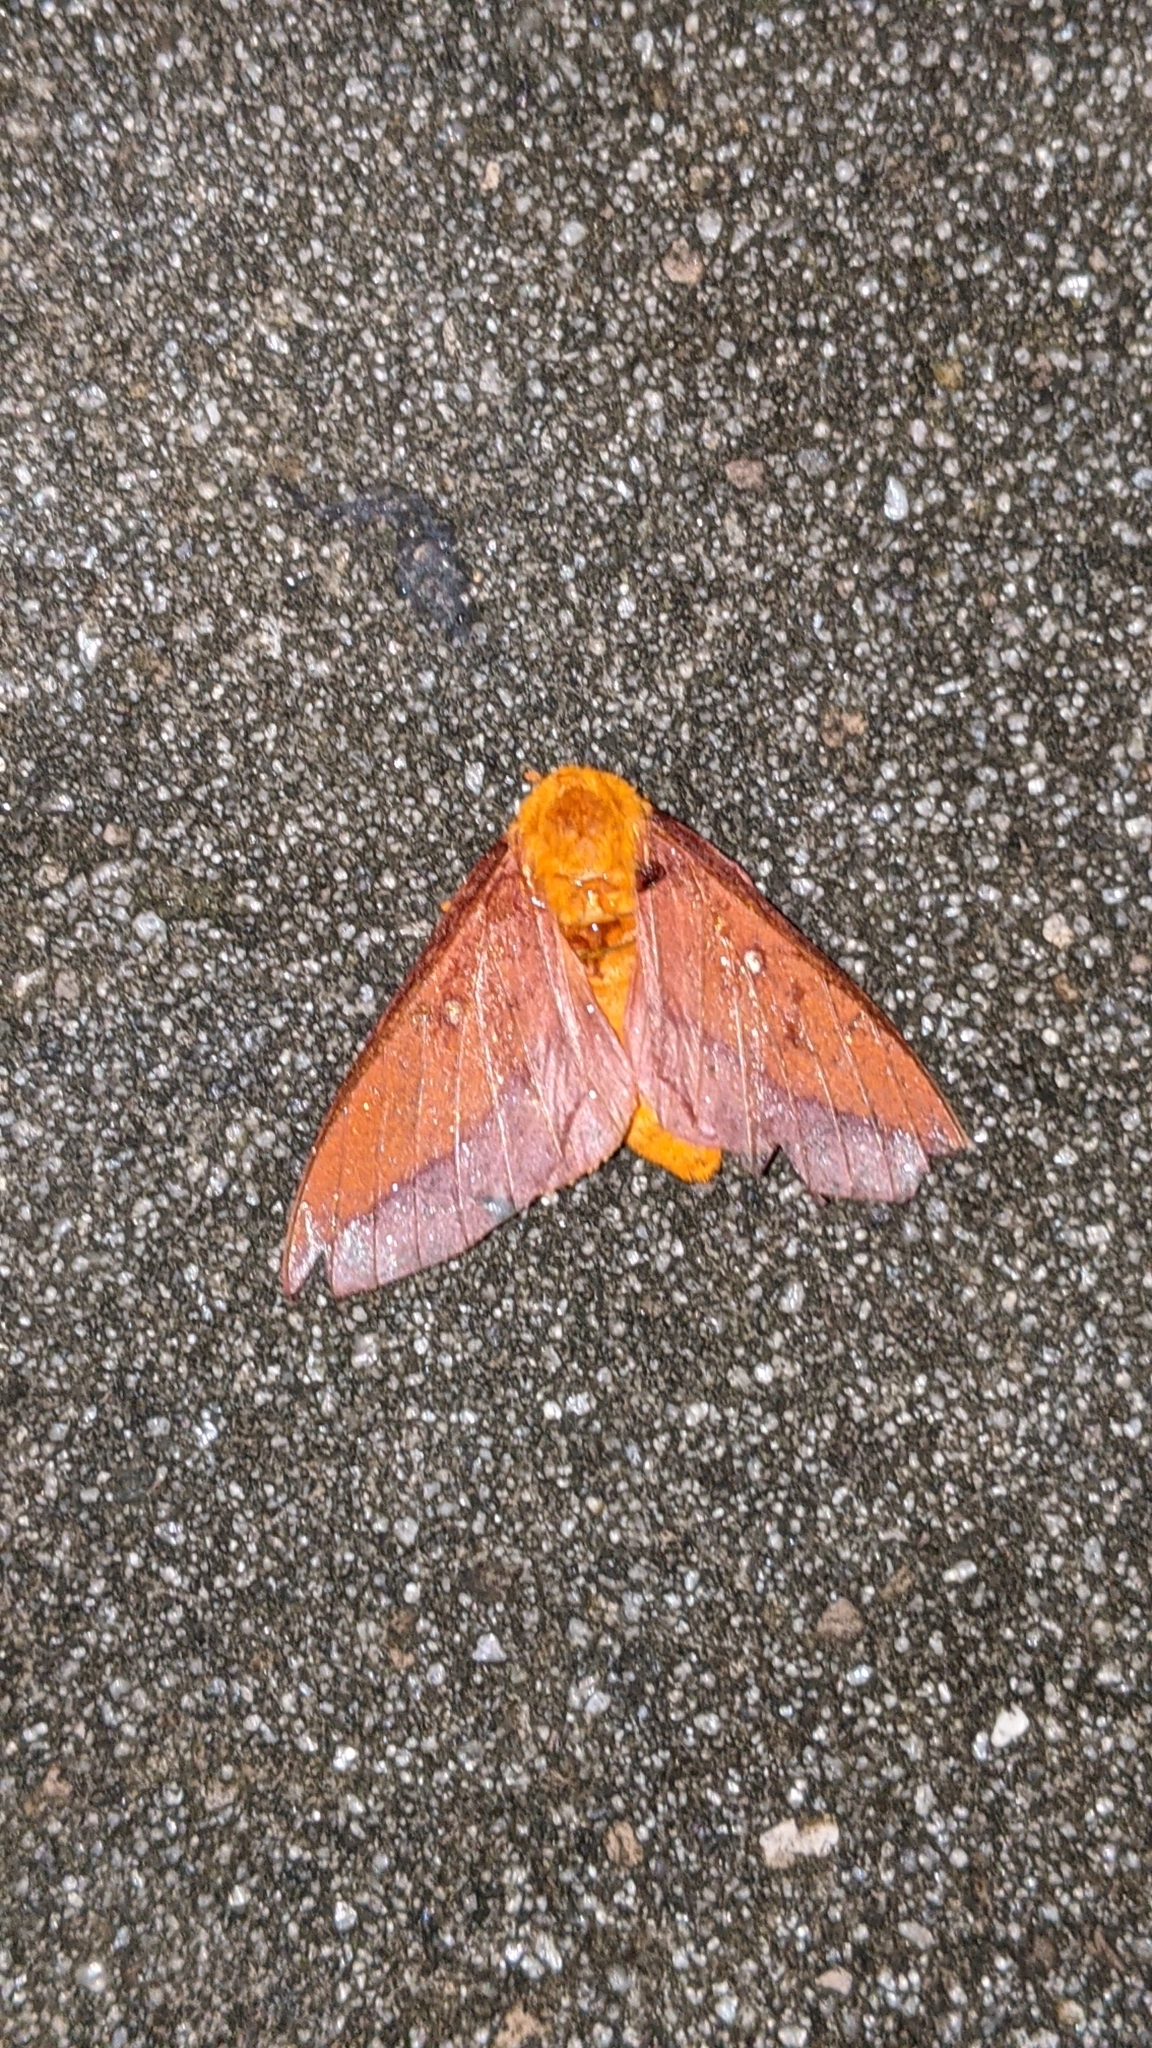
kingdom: Animalia
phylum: Arthropoda
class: Insecta
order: Lepidoptera
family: Saturniidae
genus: Anisota
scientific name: Anisota virginiensis
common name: Pink striped oakworm moth
